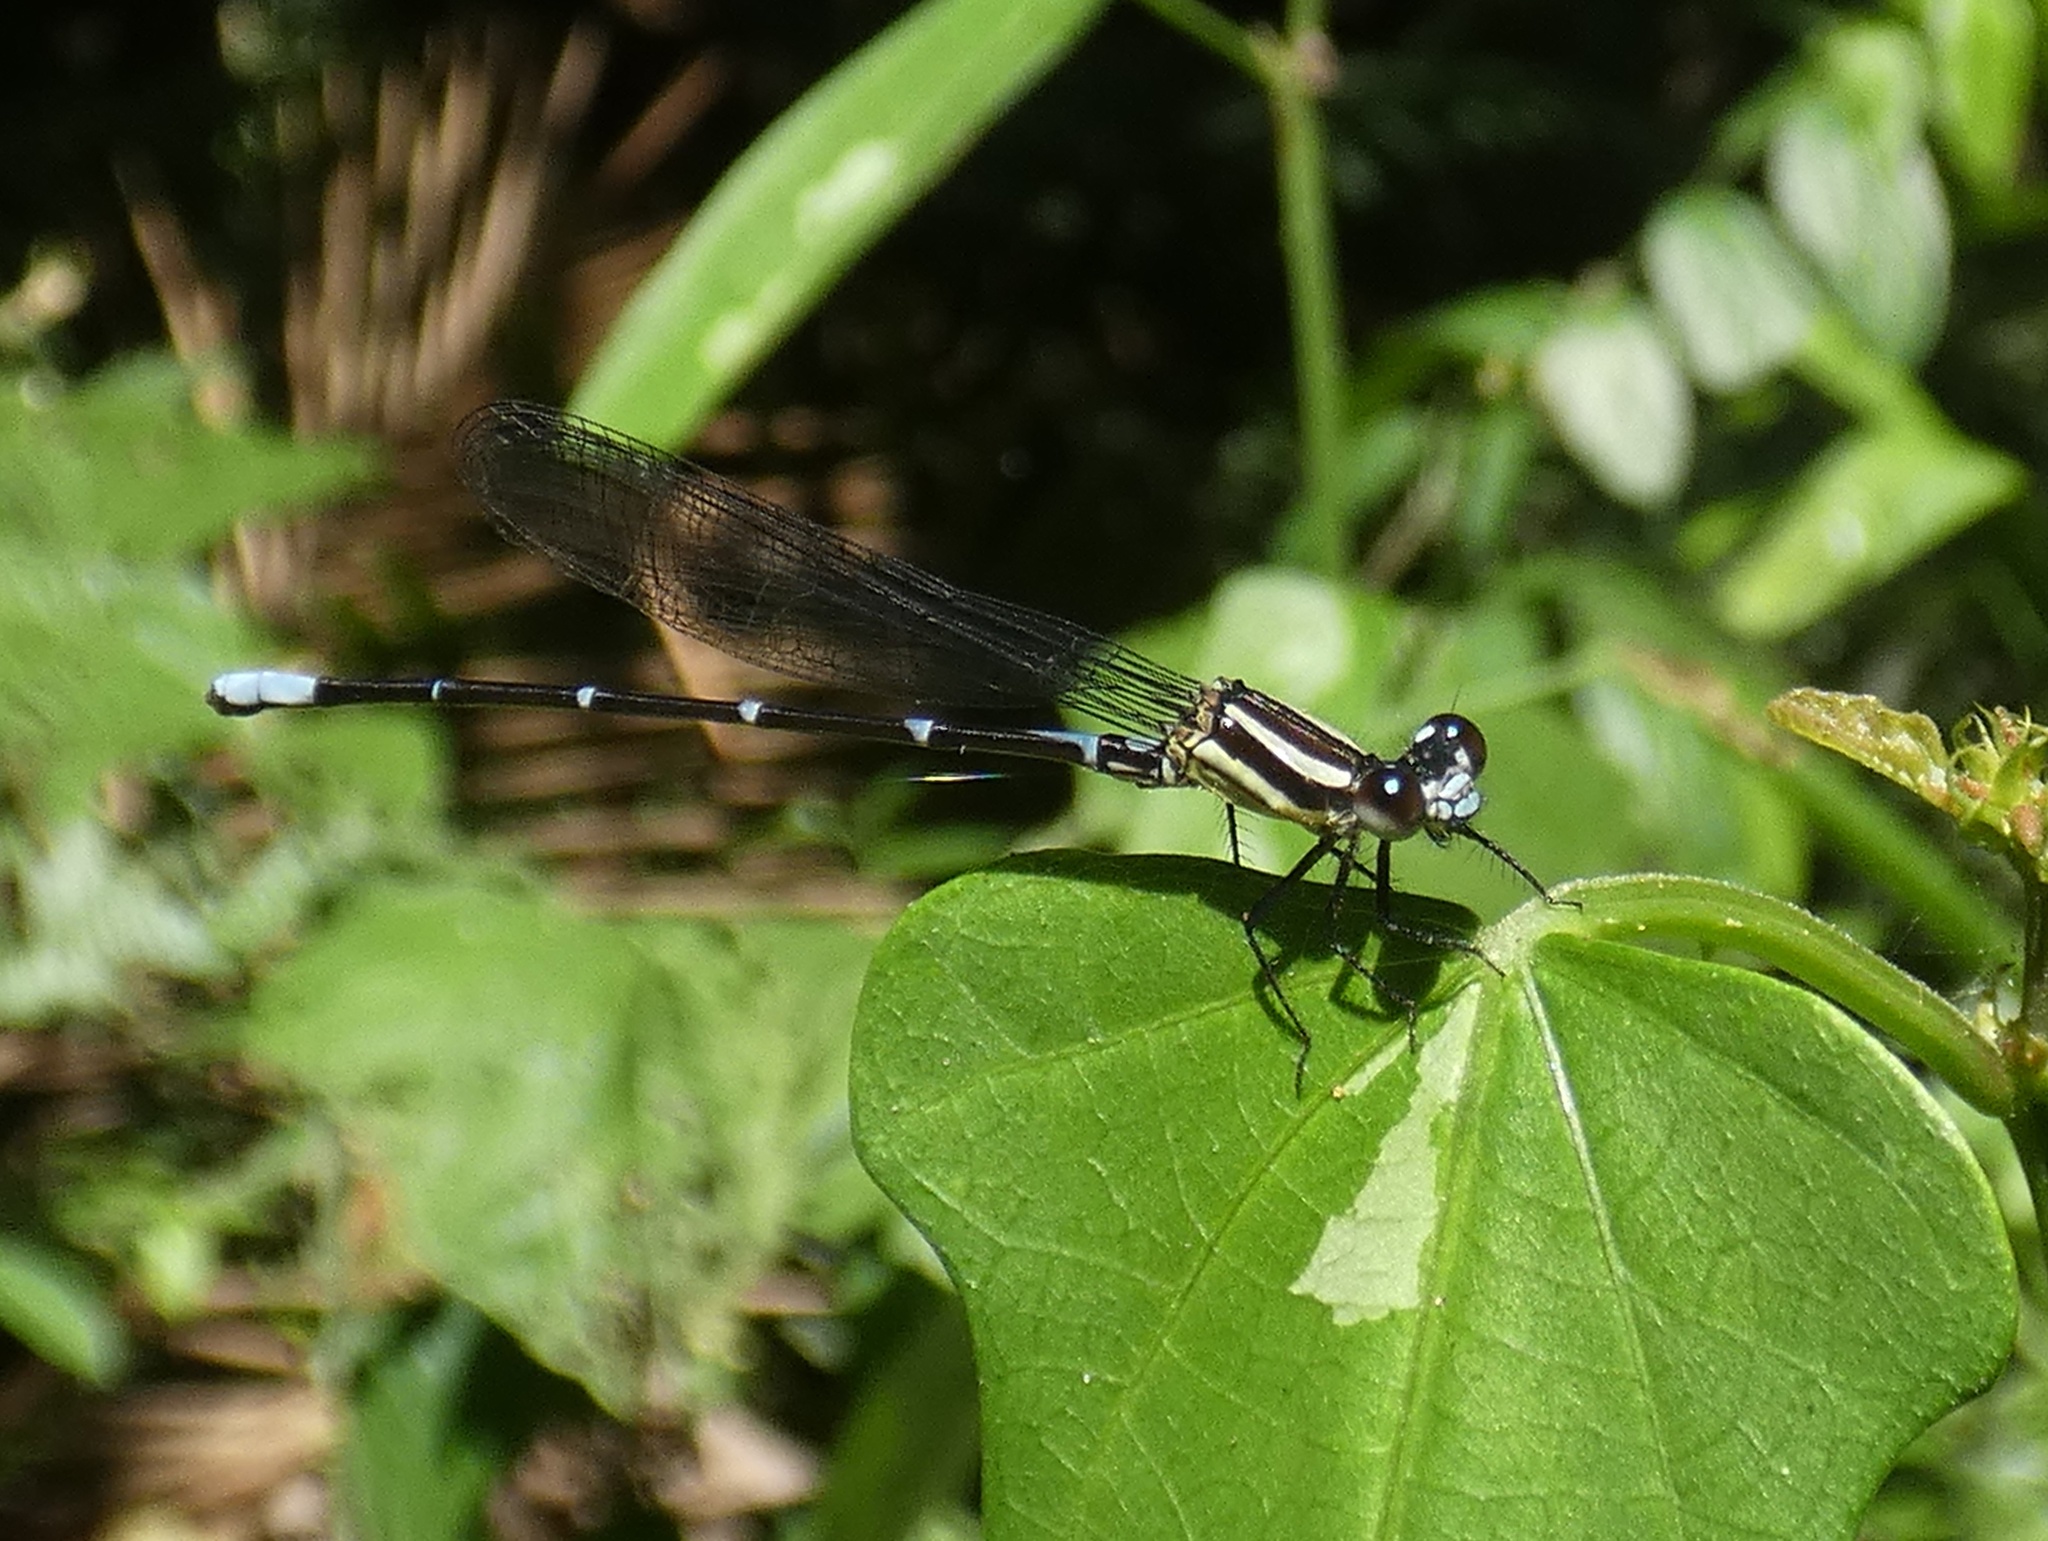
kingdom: Animalia
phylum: Arthropoda
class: Insecta
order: Odonata
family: Coenagrionidae
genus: Argia
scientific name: Argia oculata
